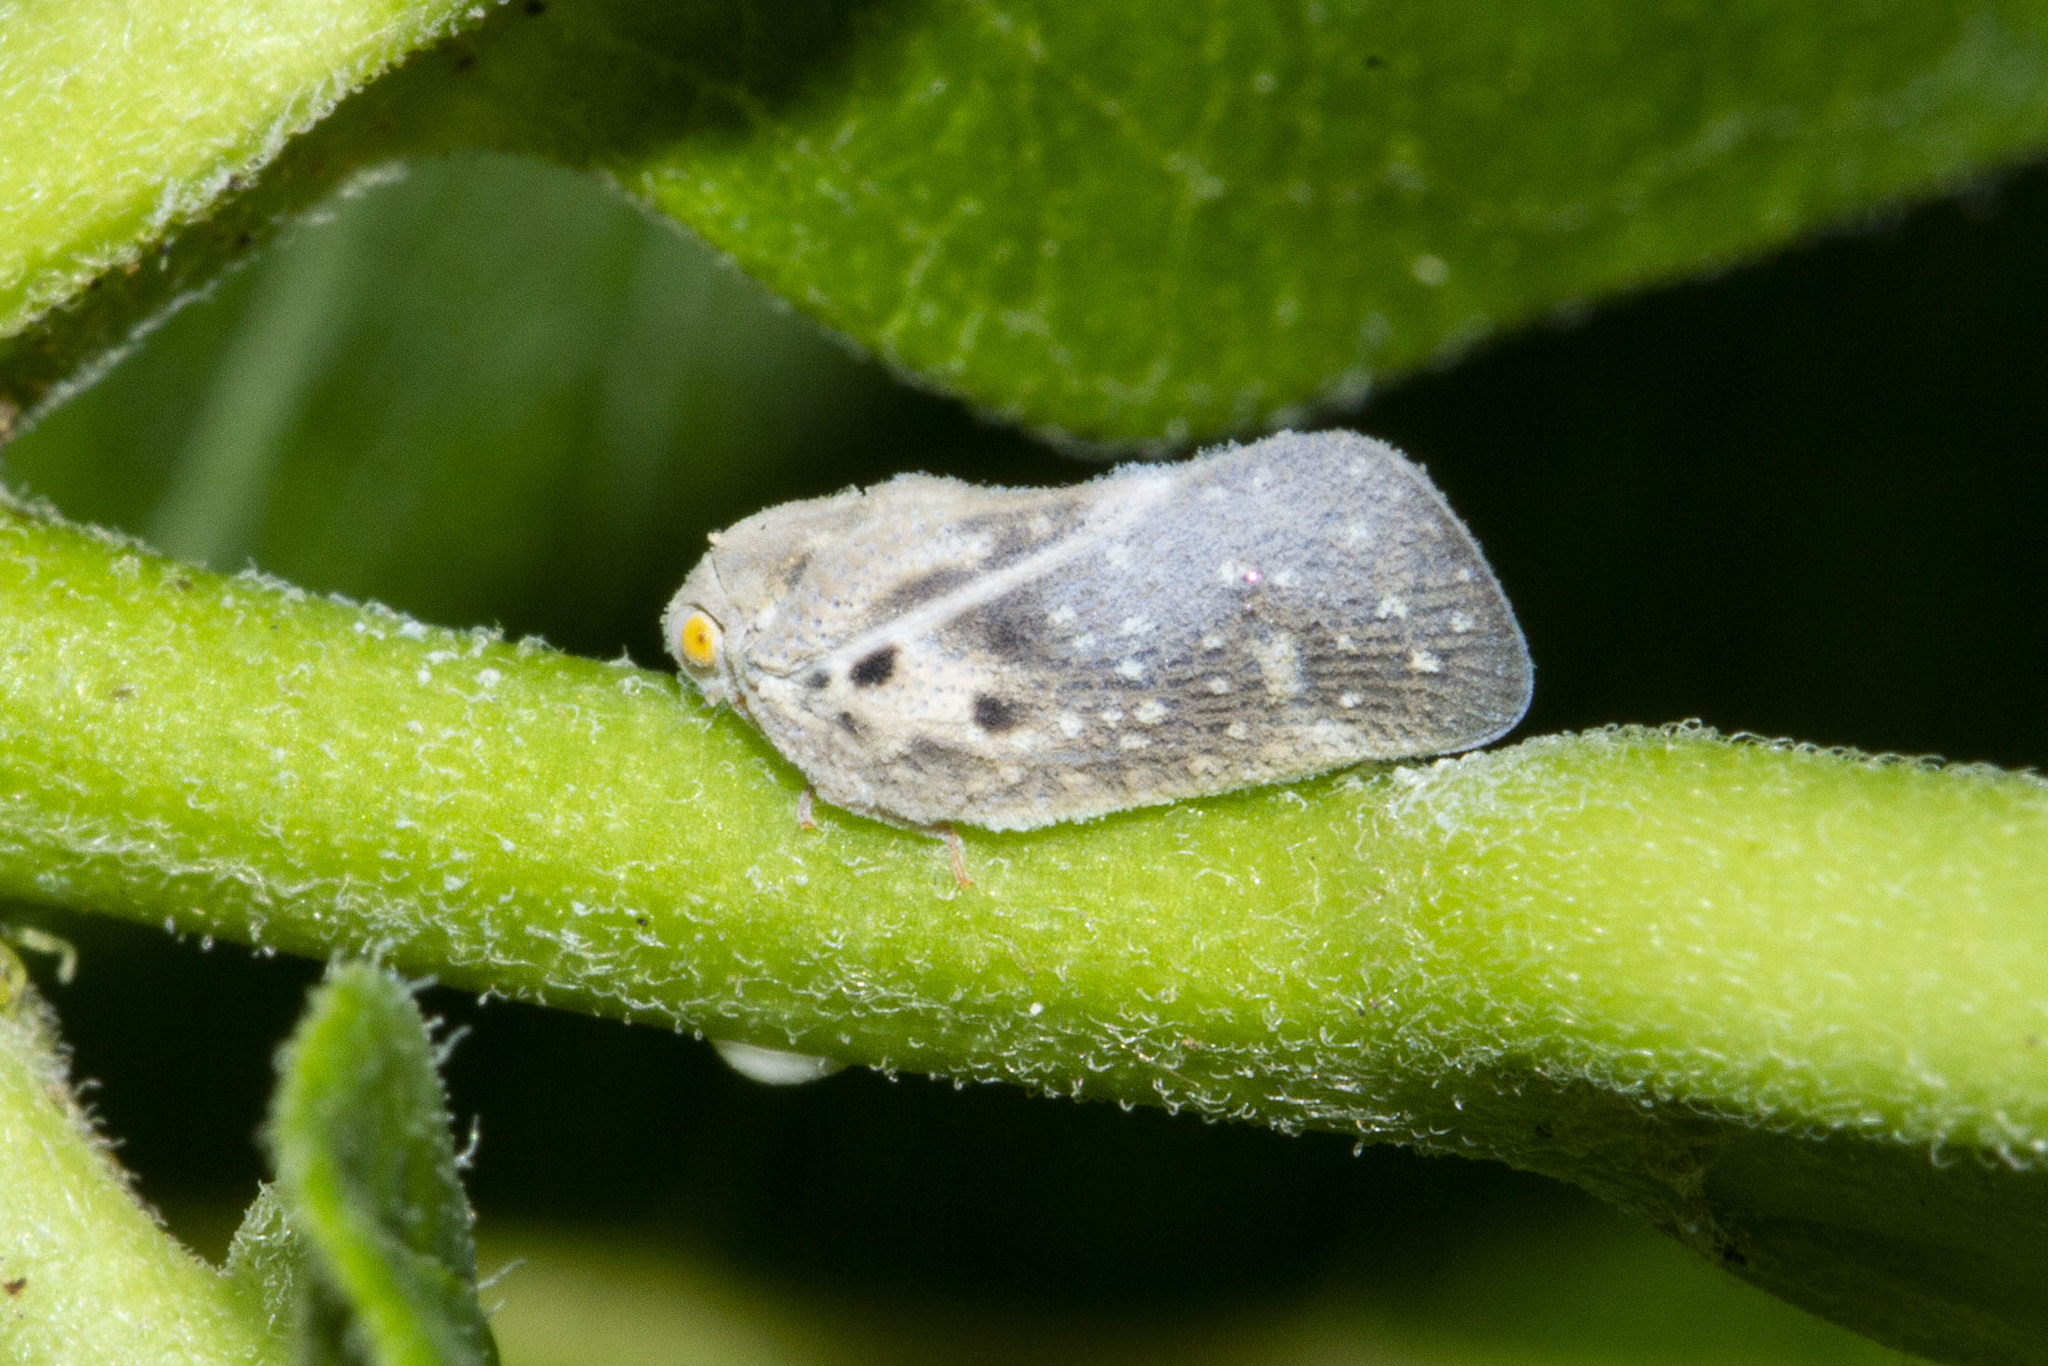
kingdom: Animalia
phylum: Arthropoda
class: Insecta
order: Hemiptera
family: Flatidae
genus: Metcalfa
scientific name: Metcalfa pruinosa
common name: Citrus flatid planthopper
